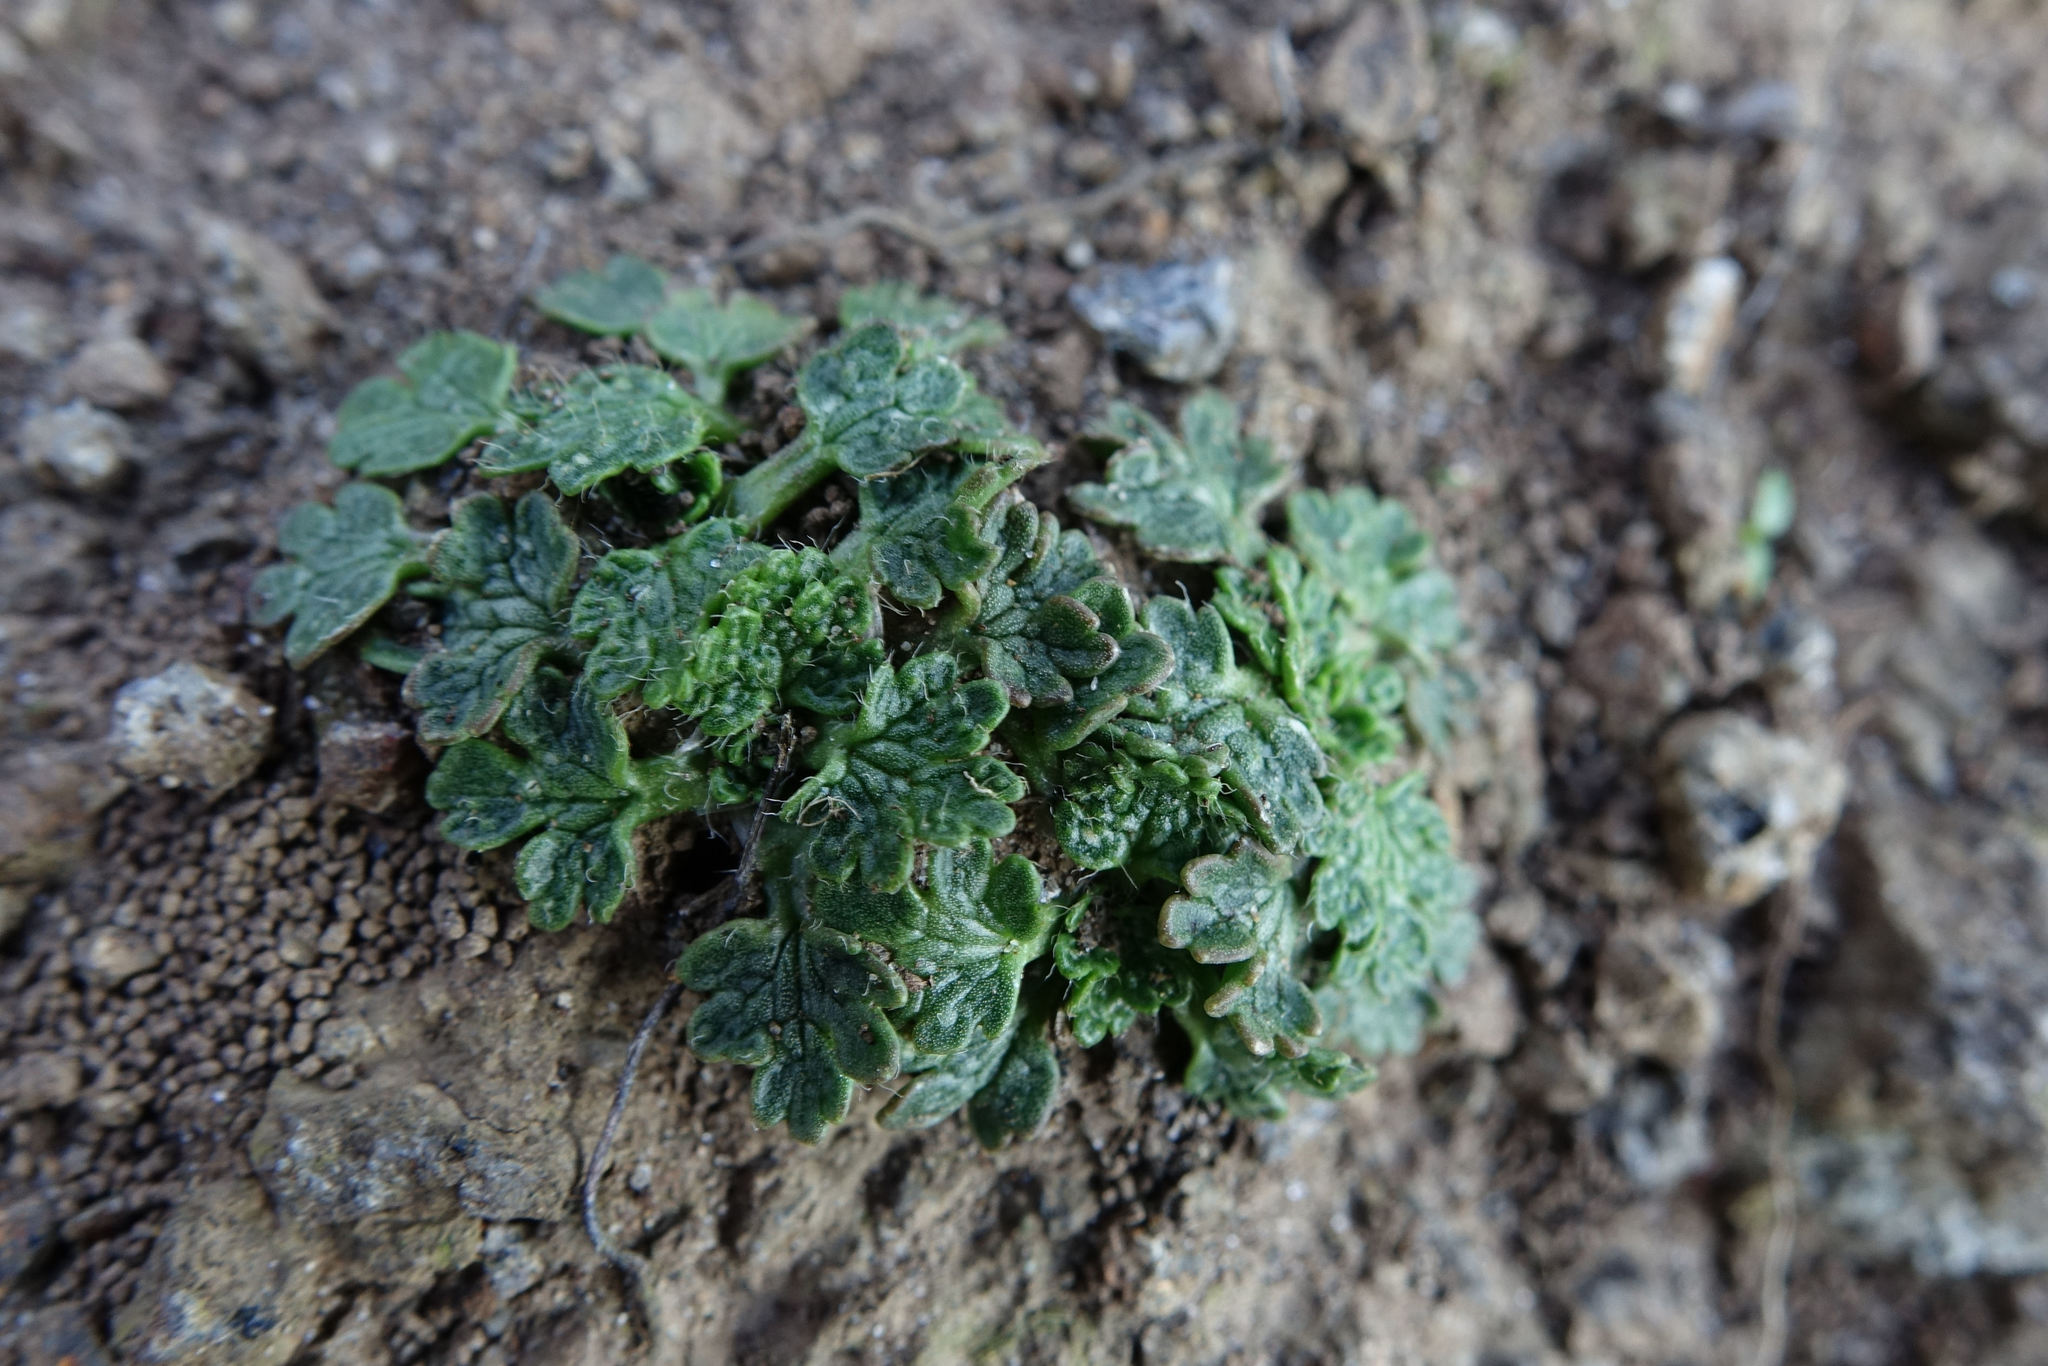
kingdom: Plantae
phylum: Tracheophyta
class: Magnoliopsida
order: Ranunculales
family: Ranunculaceae
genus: Ranunculus
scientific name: Ranunculus recens
